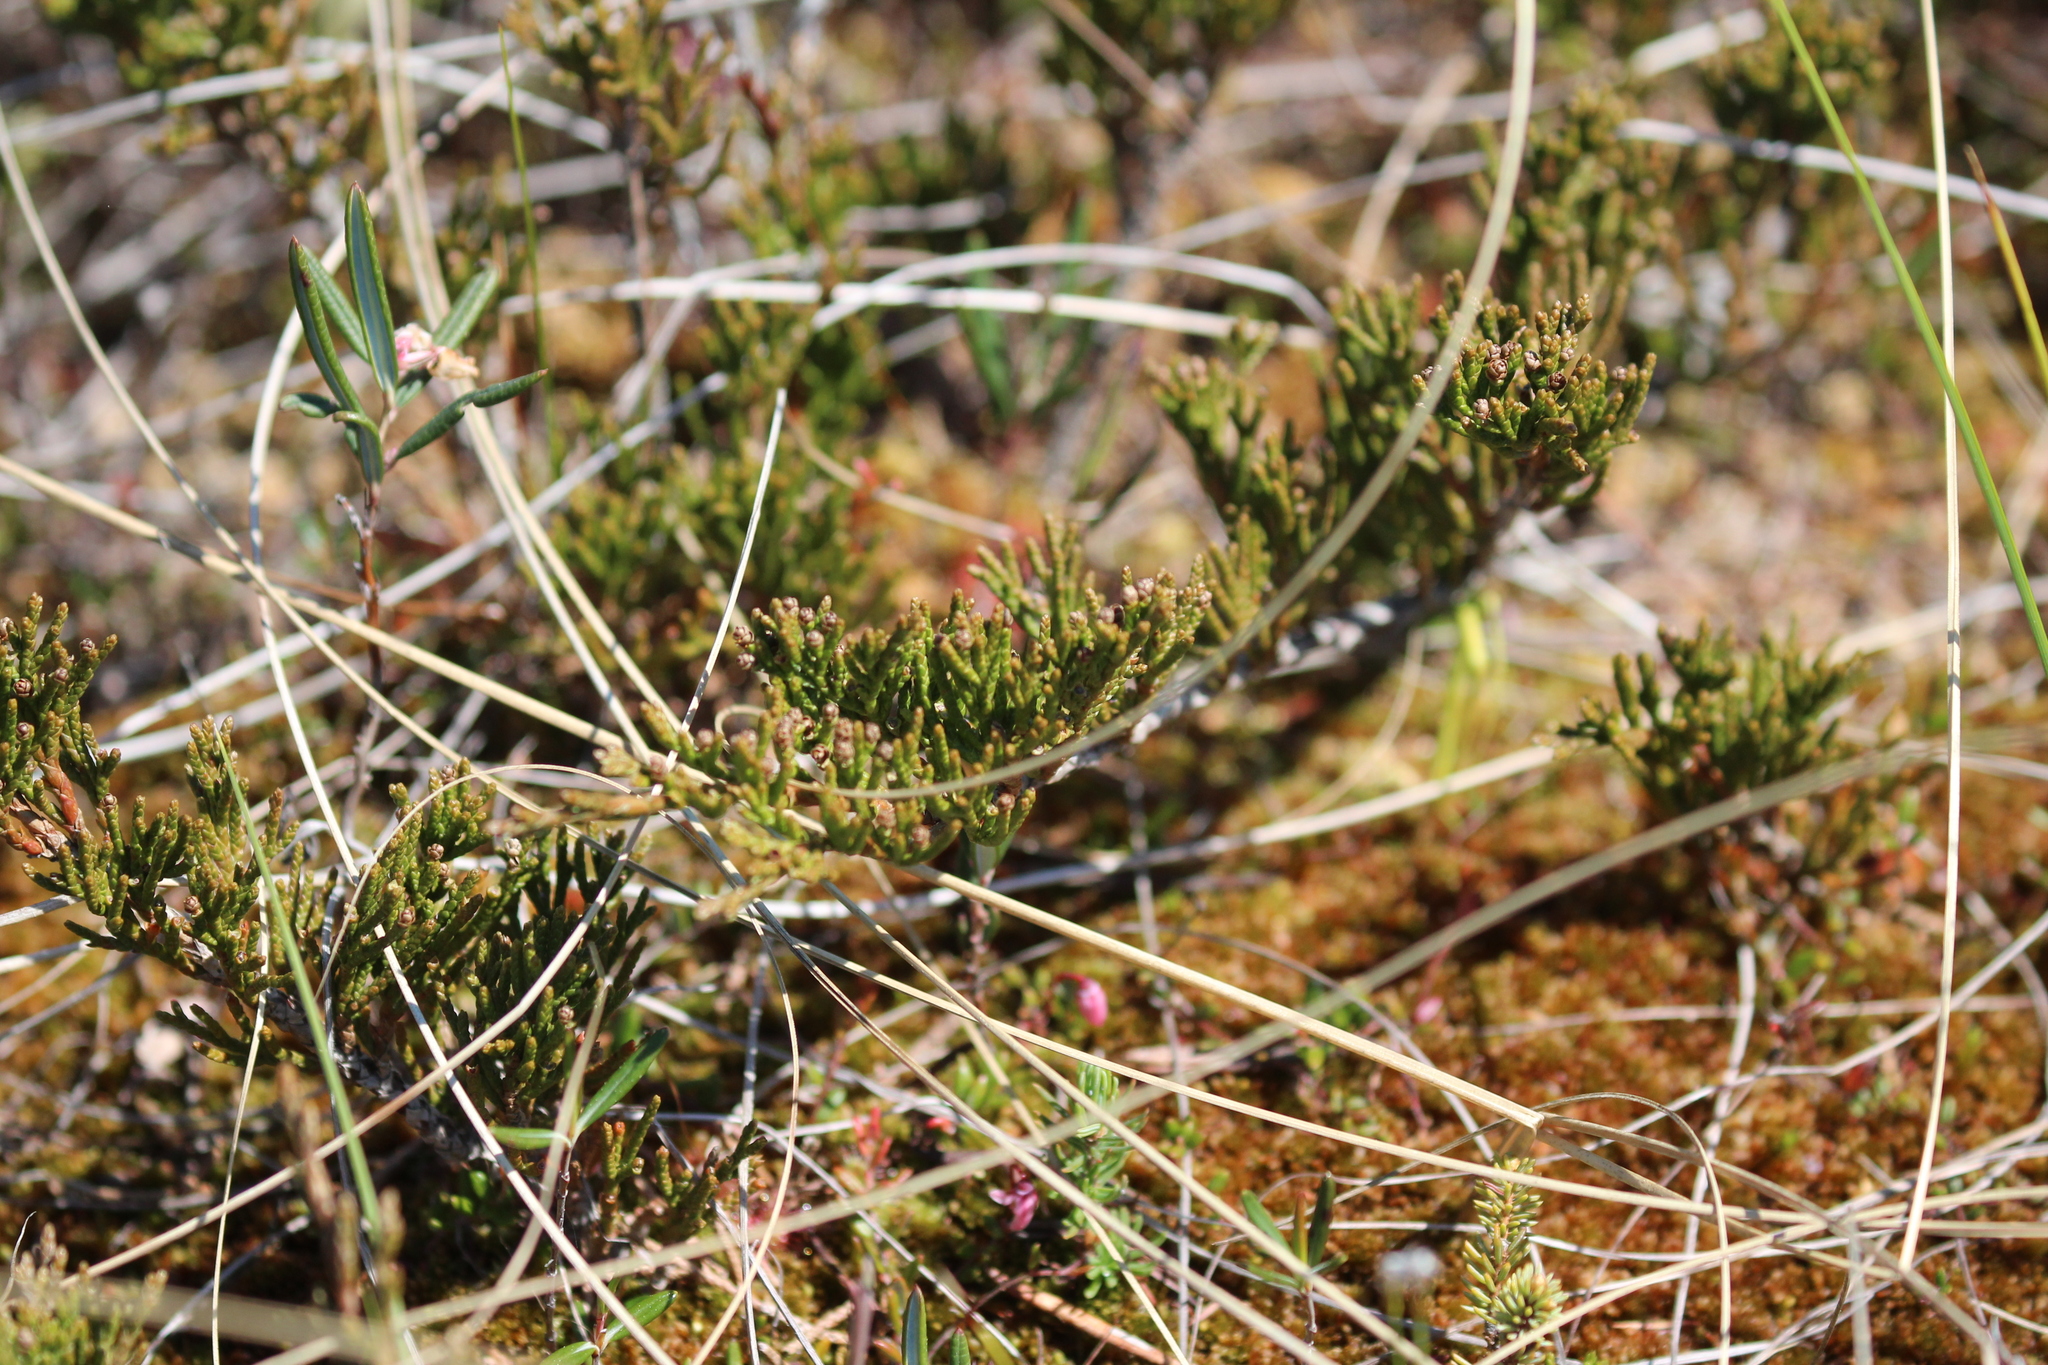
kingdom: Plantae
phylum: Tracheophyta
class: Pinopsida
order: Pinales
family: Cupressaceae
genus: Juniperus
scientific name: Juniperus horizontalis
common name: Creeping juniper
